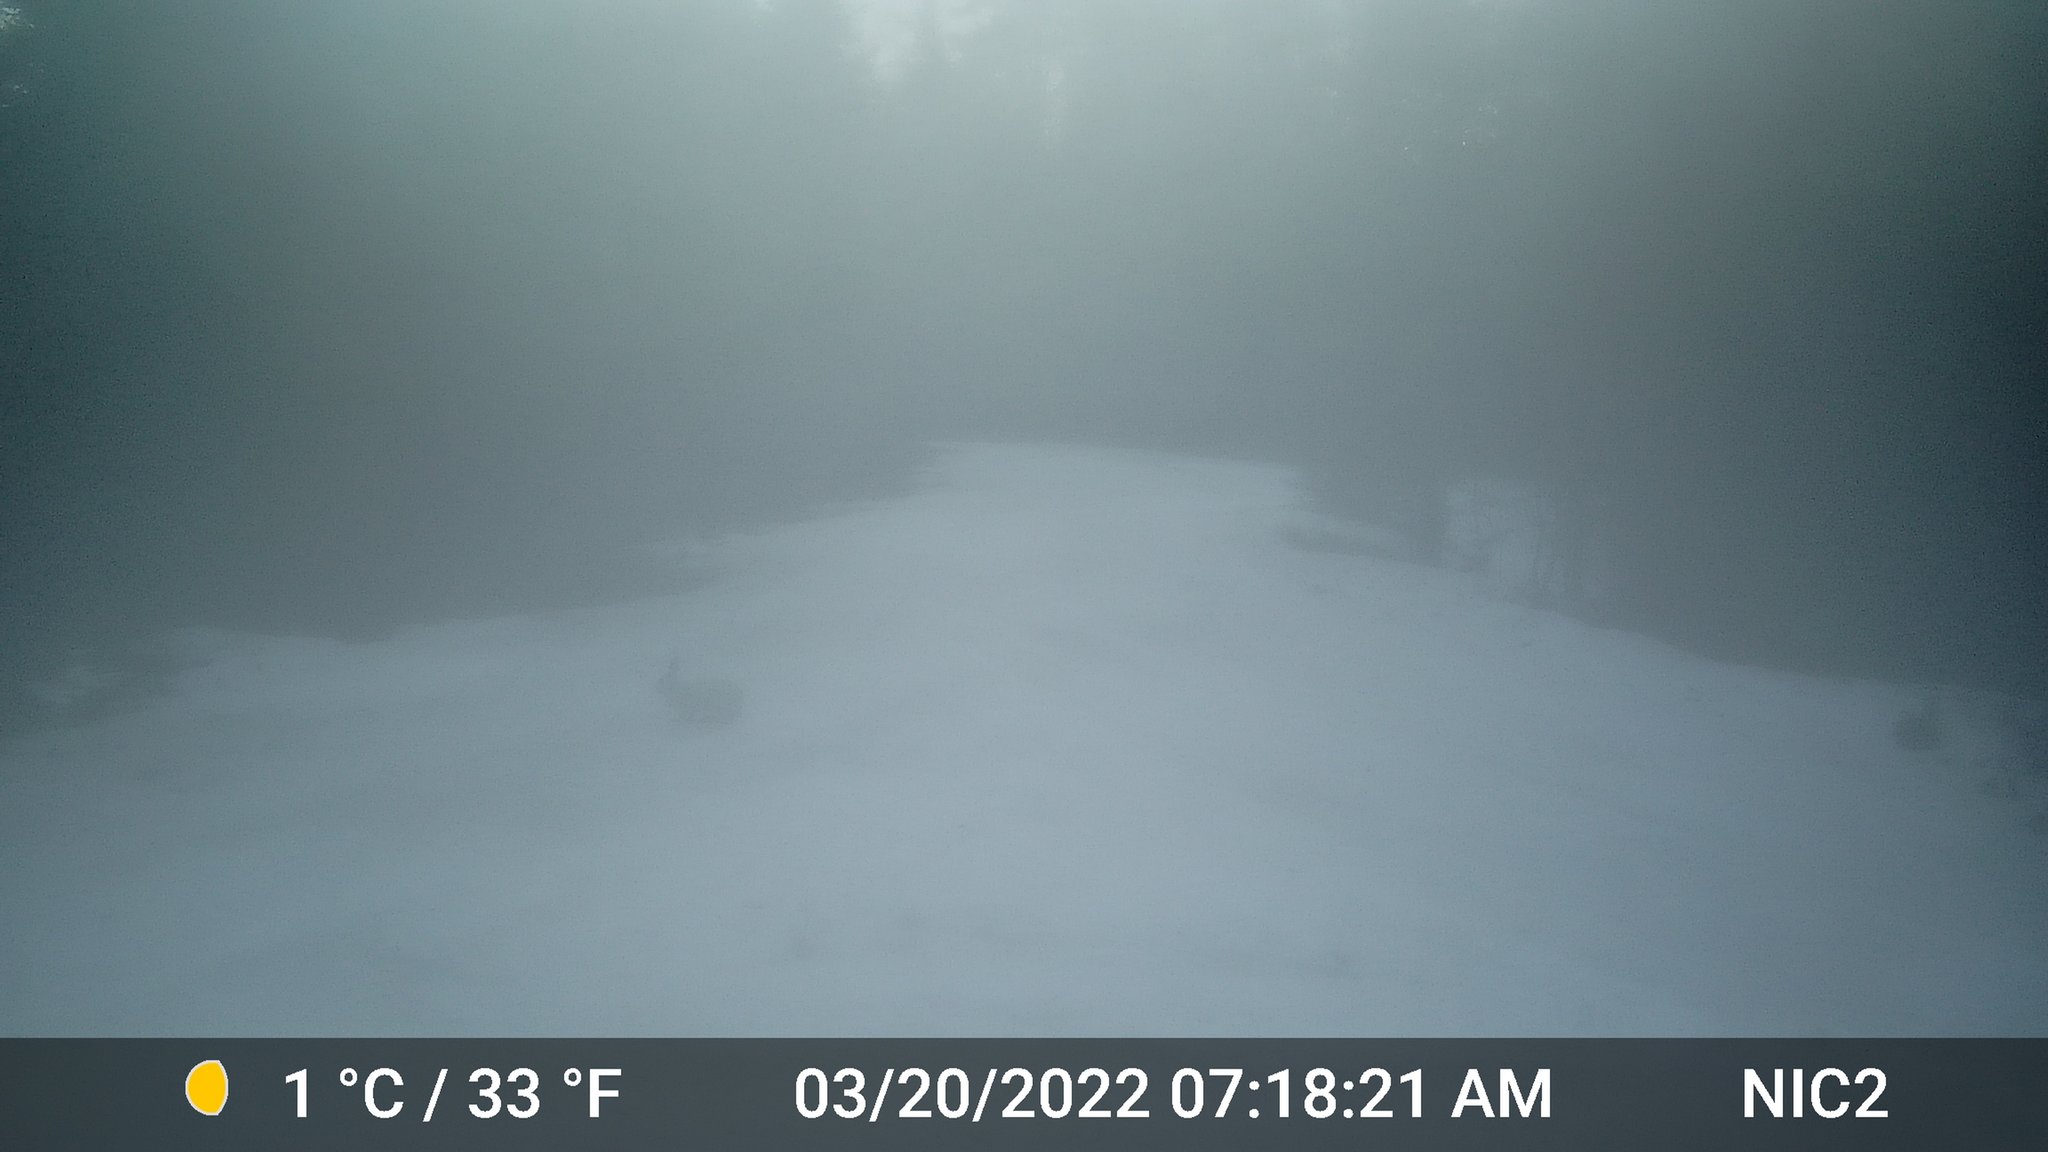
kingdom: Animalia
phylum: Chordata
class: Mammalia
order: Lagomorpha
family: Leporidae
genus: Lepus
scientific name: Lepus americanus
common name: Snowshoe hare
